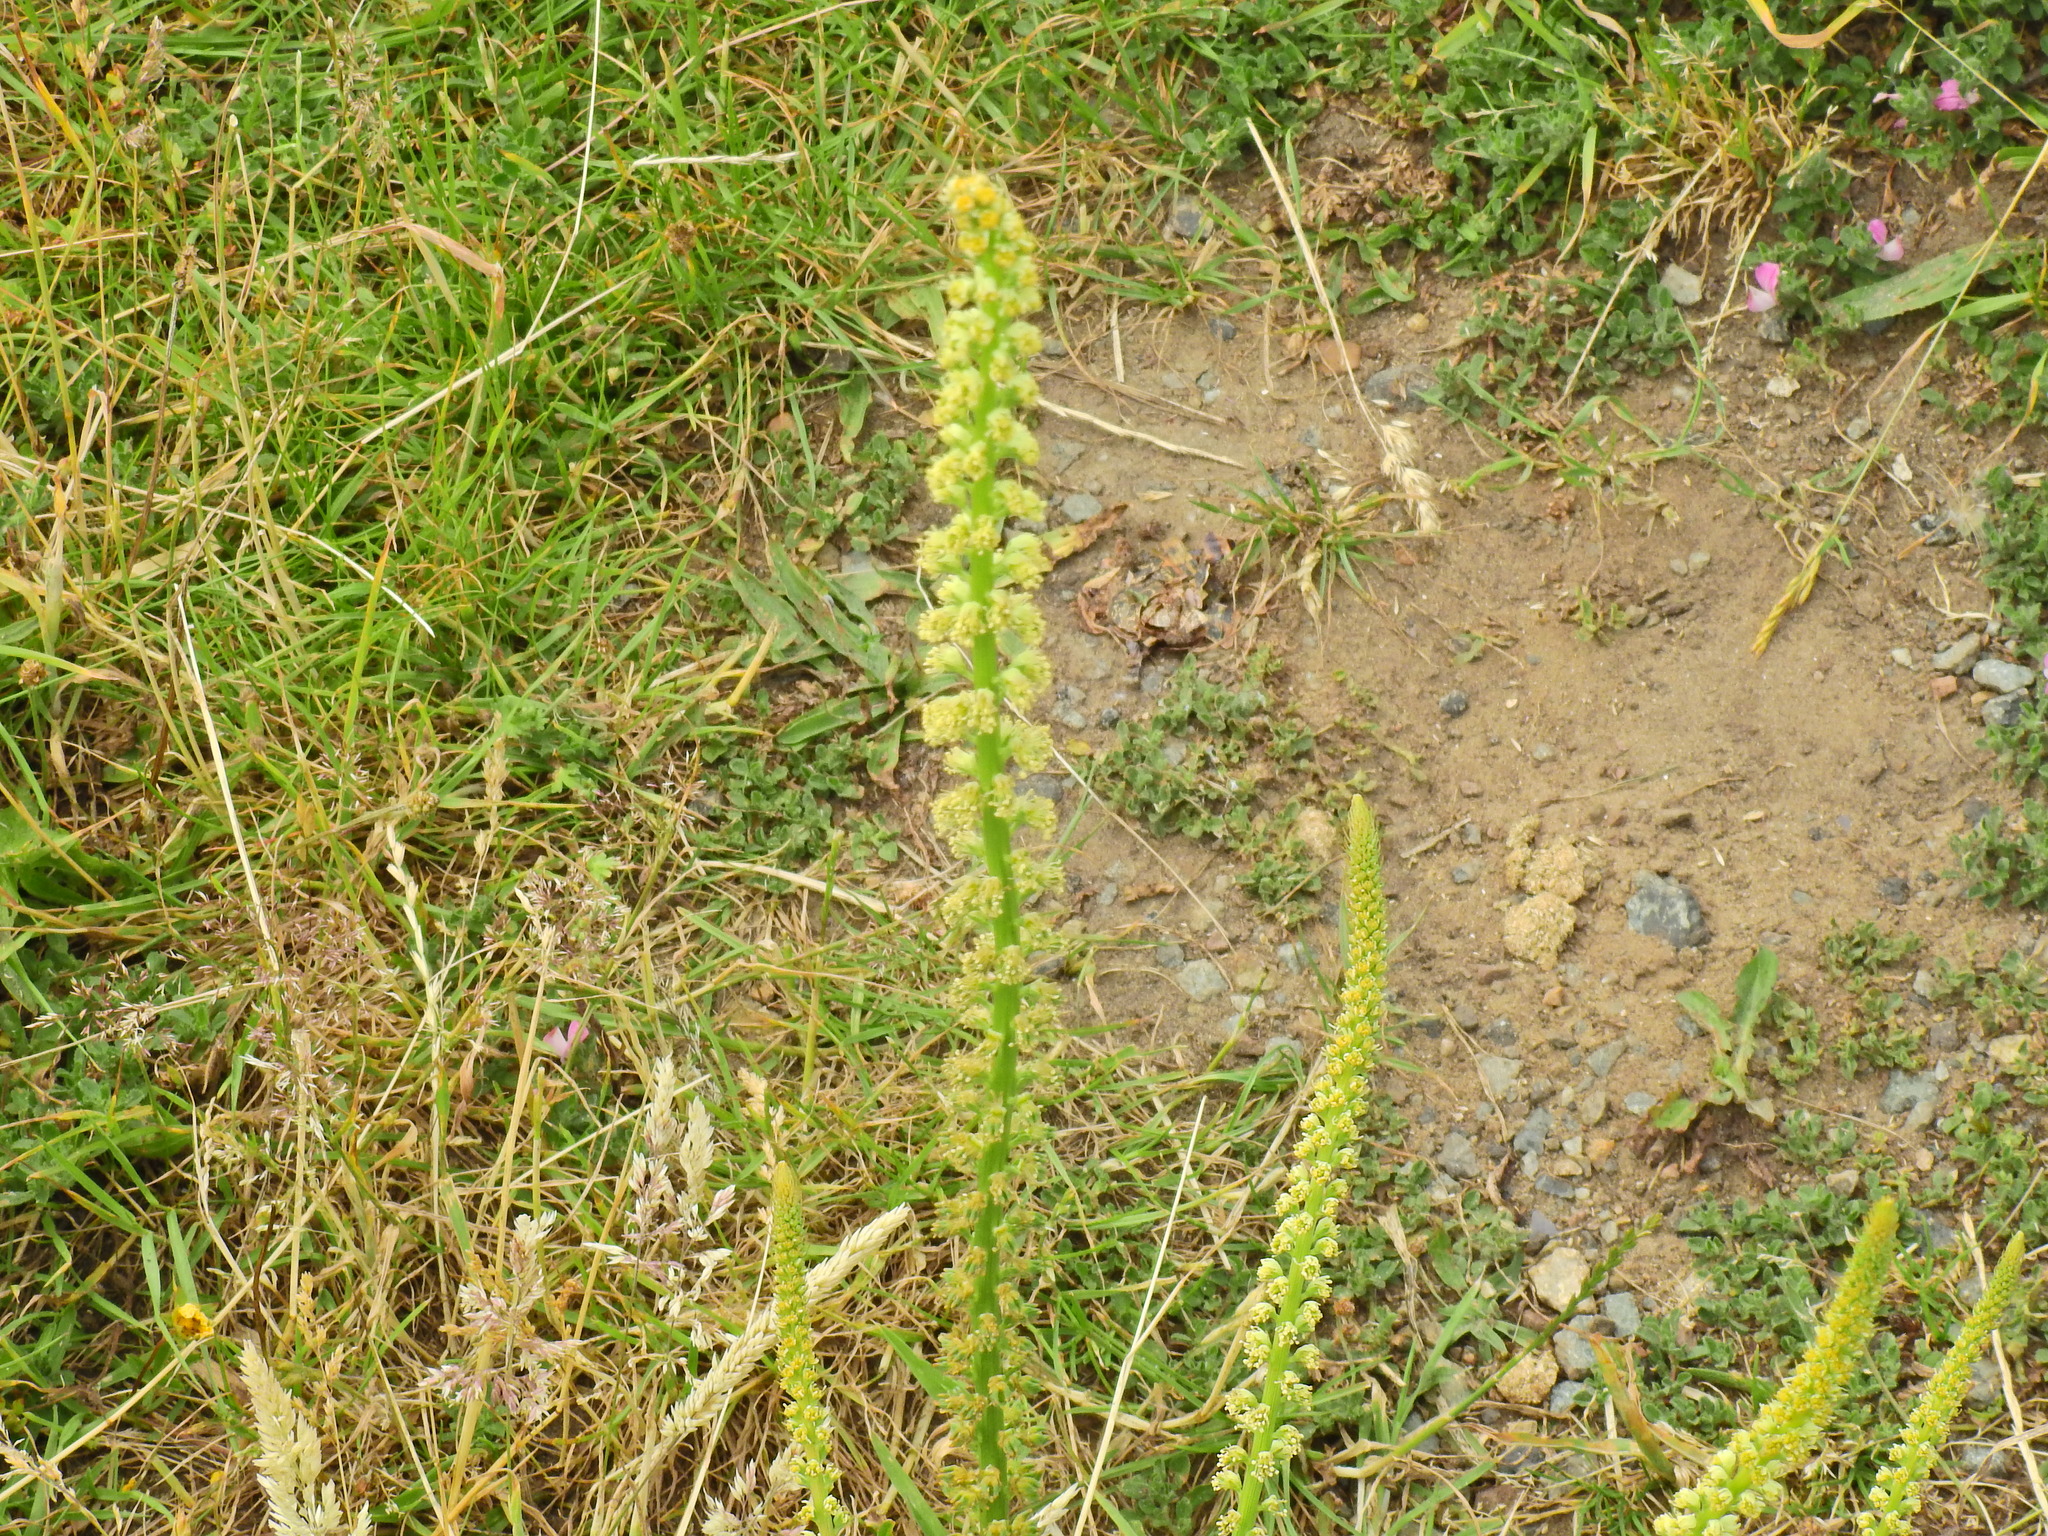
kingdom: Plantae
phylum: Tracheophyta
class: Magnoliopsida
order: Brassicales
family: Resedaceae
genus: Reseda
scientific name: Reseda luteola
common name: Weld
